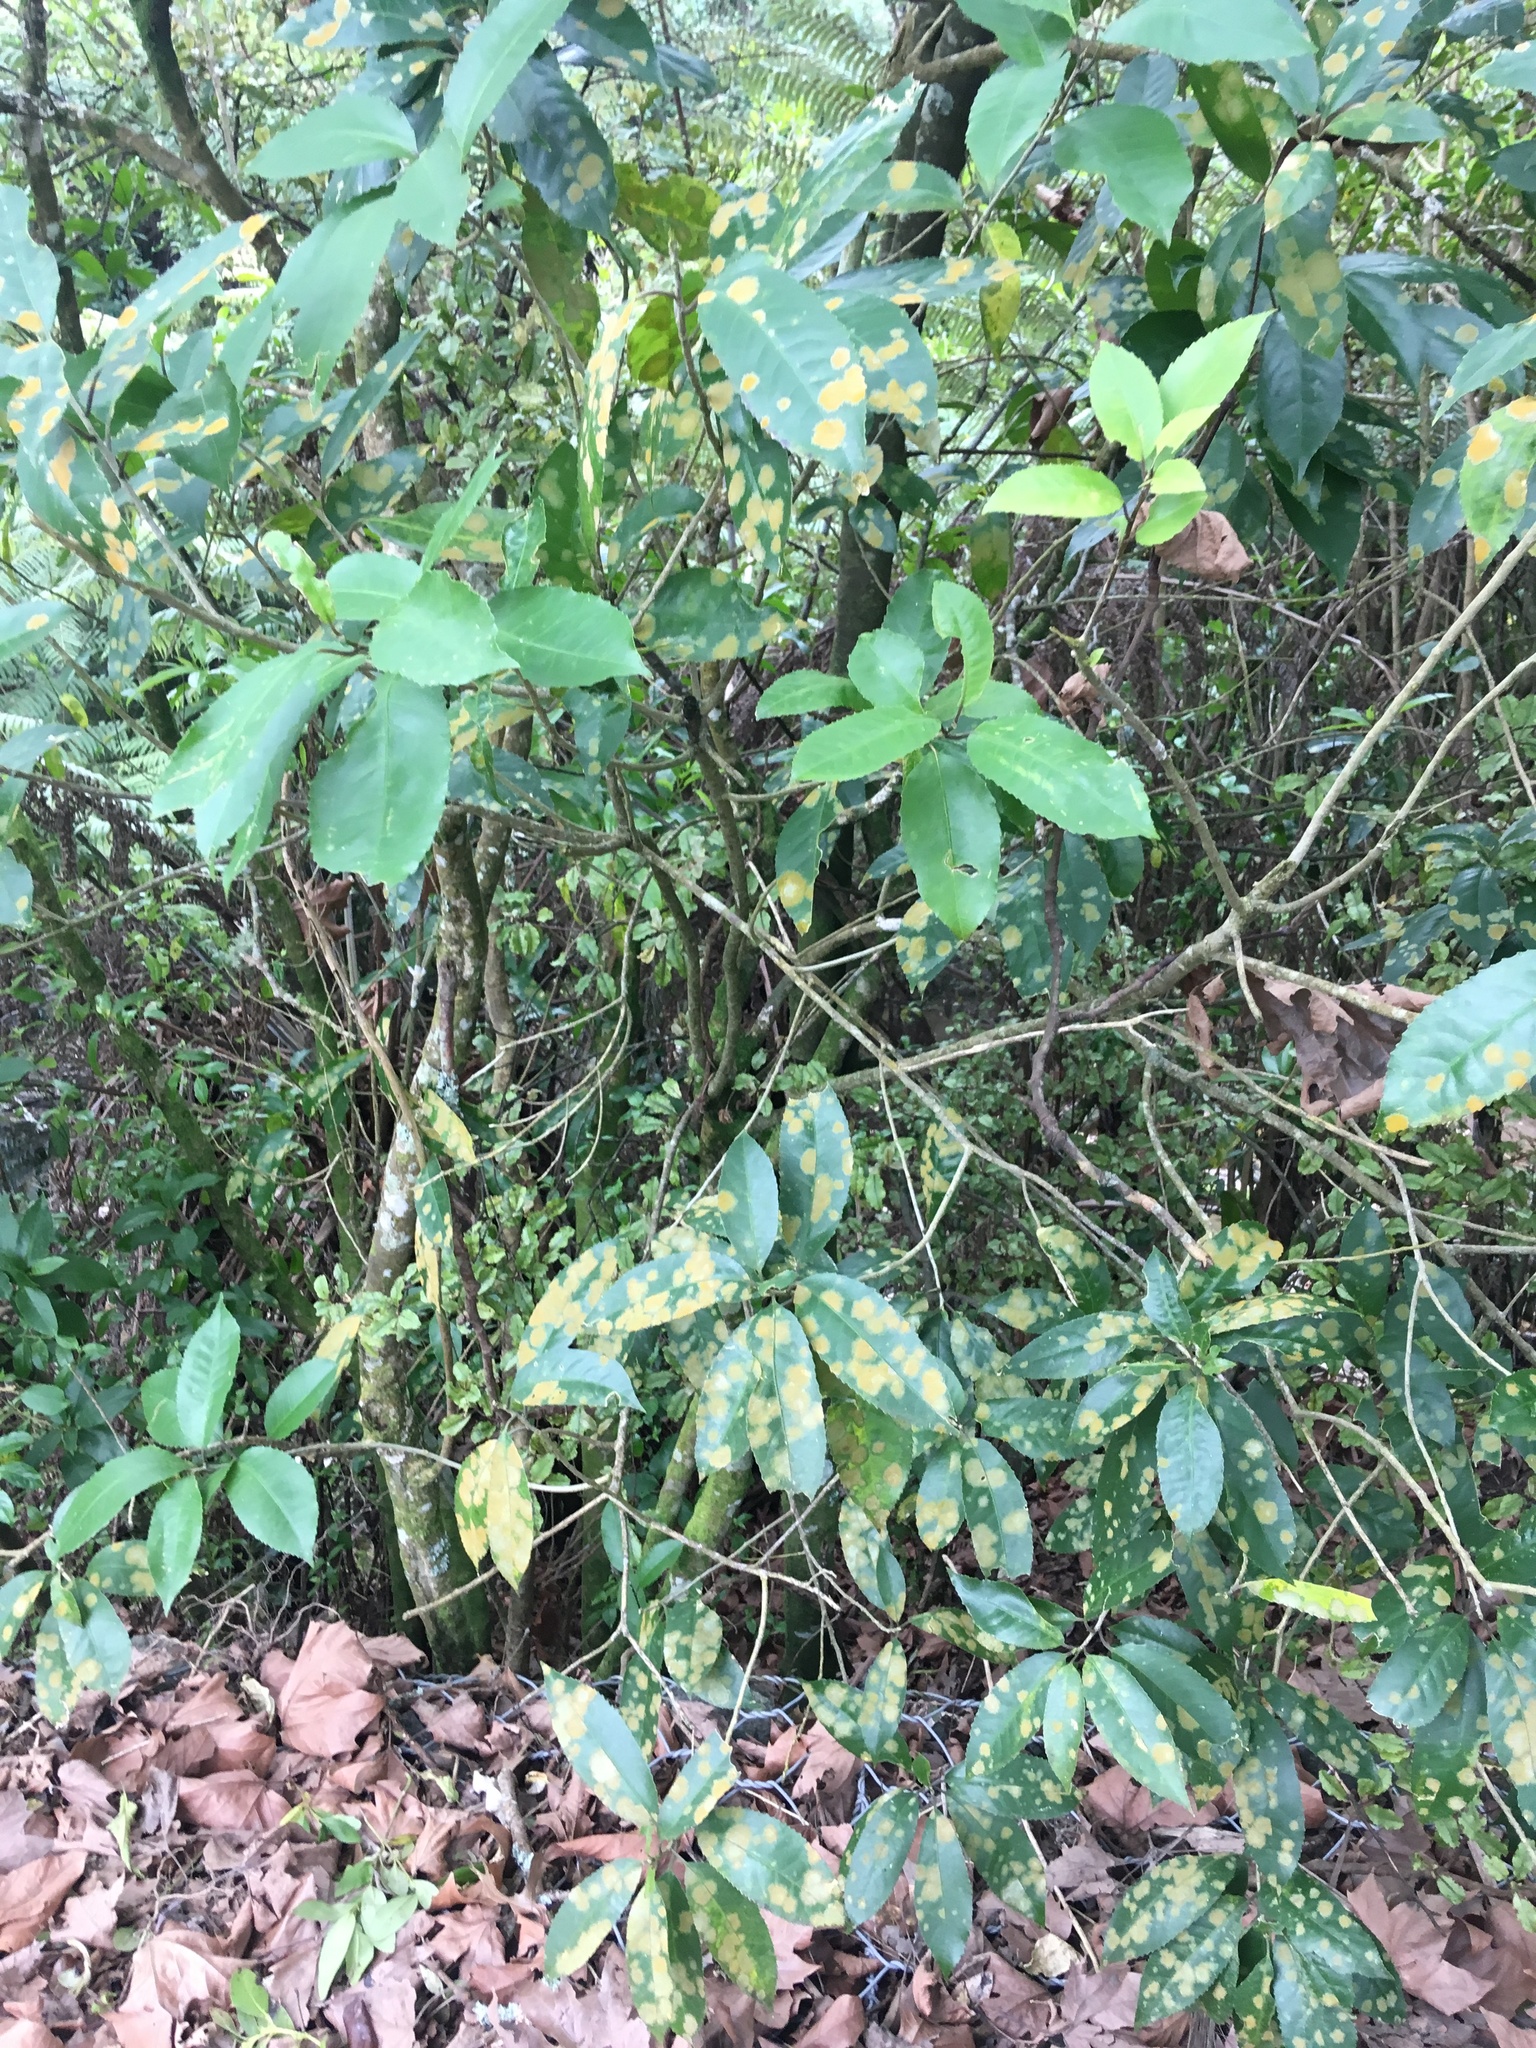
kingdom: Plantae
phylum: Tracheophyta
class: Magnoliopsida
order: Malpighiales
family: Violaceae
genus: Melicytus
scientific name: Melicytus ramiflorus
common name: Mahoe
